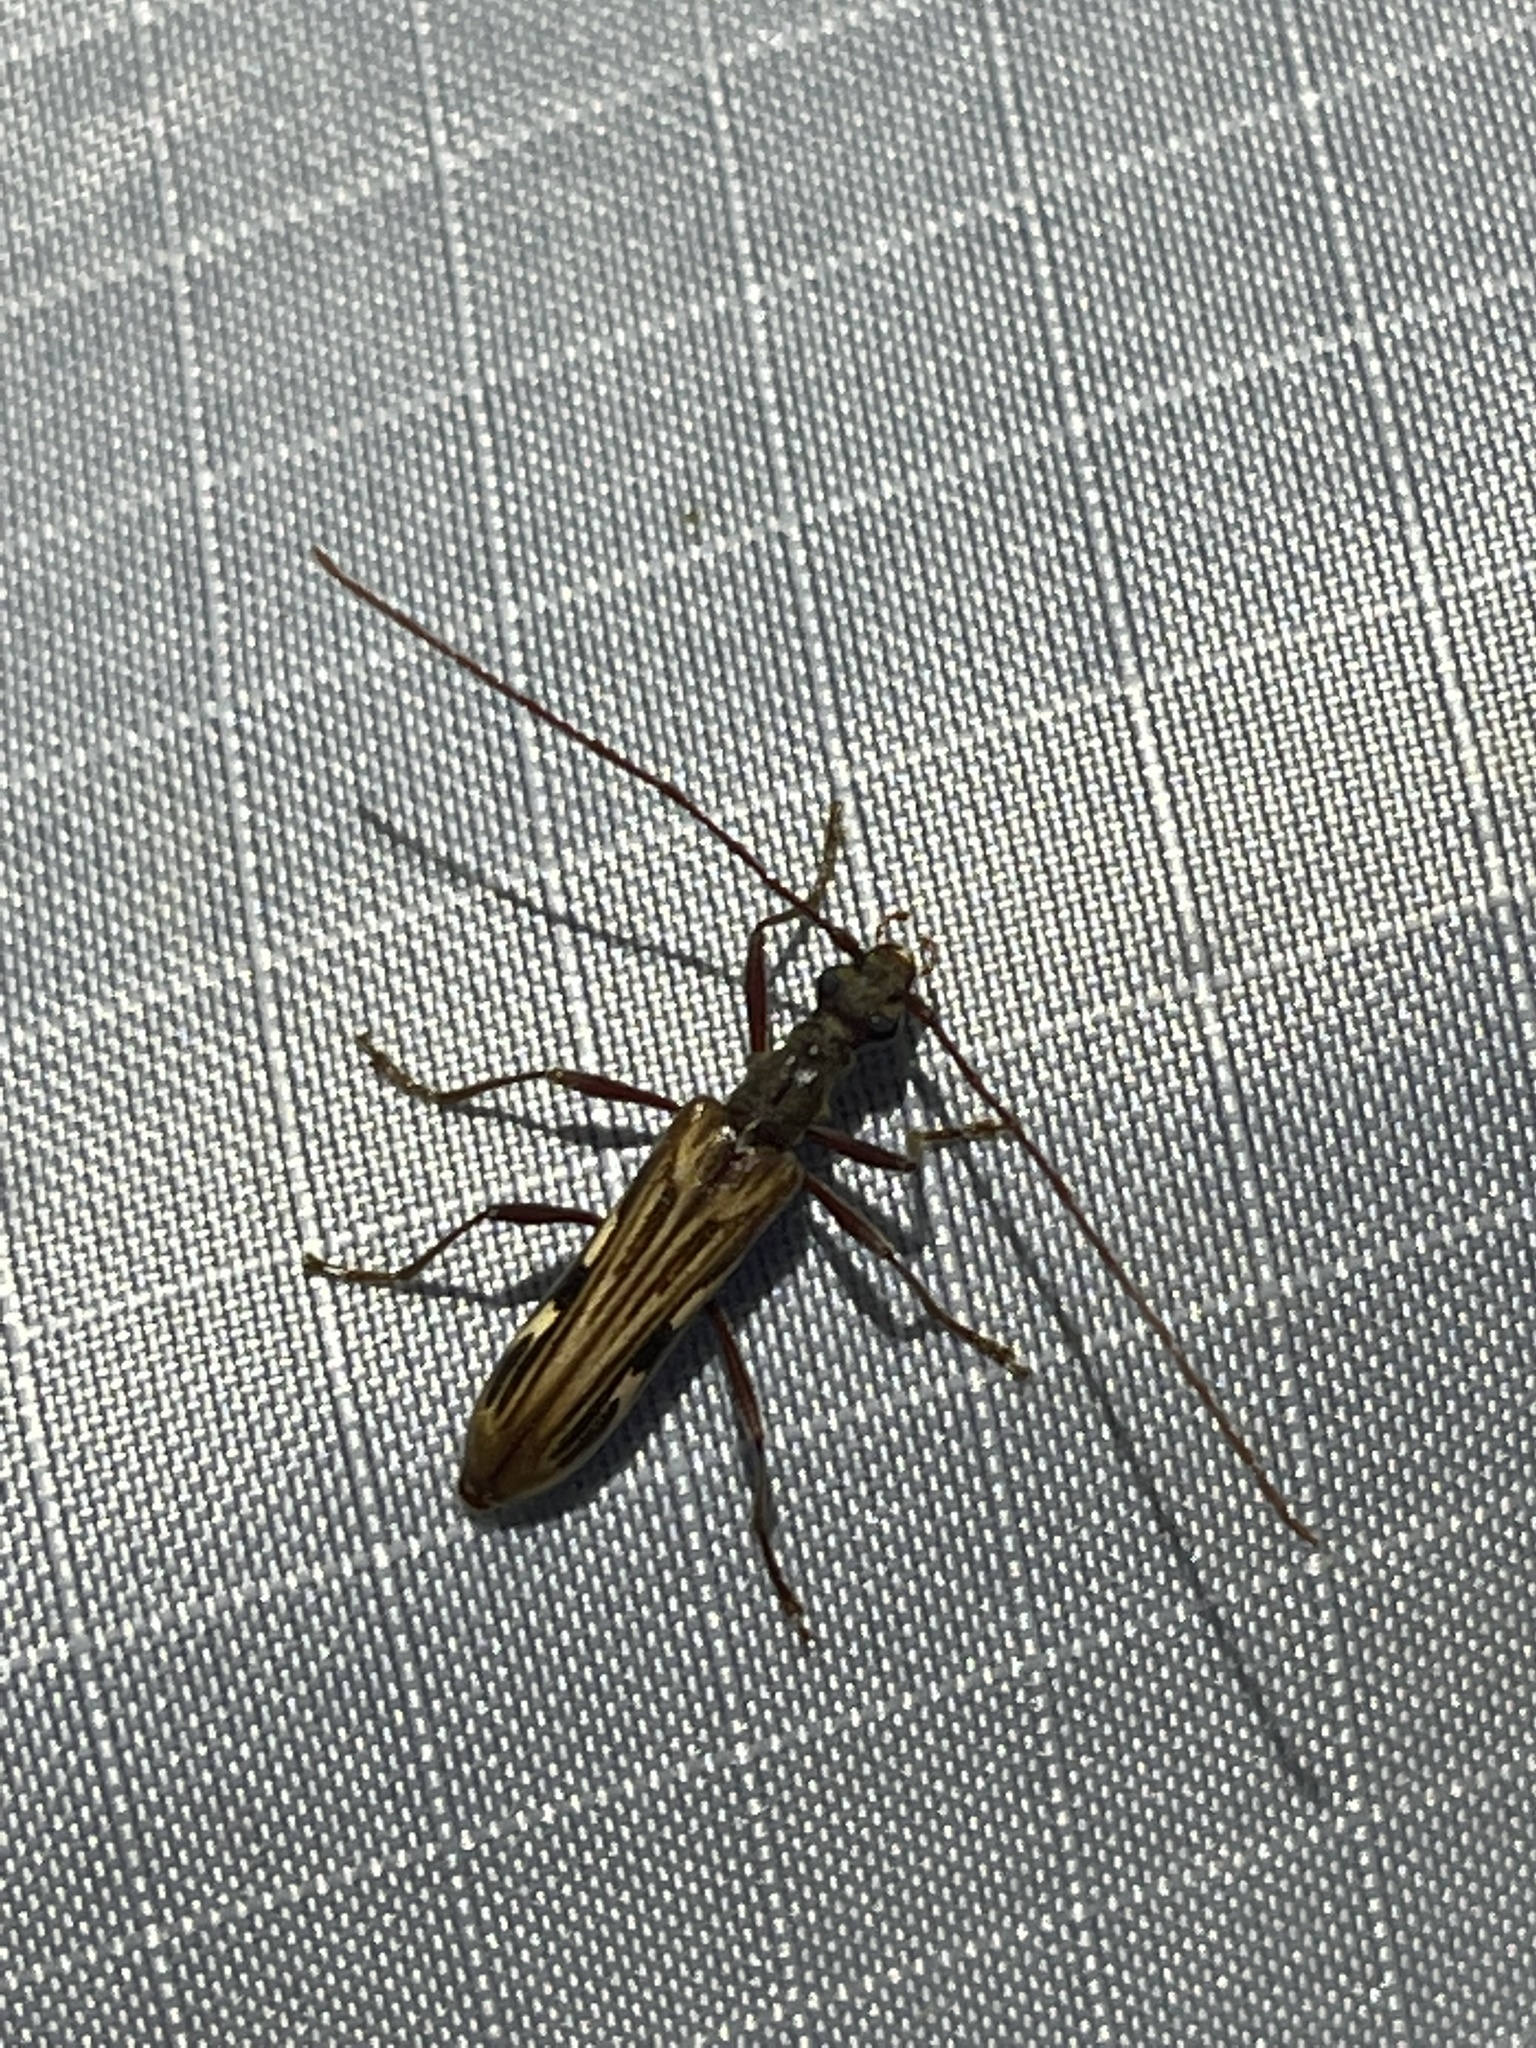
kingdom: Animalia
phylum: Arthropoda
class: Insecta
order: Coleoptera
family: Cerambycidae
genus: Leptorhabdium
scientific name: Leptorhabdium pictum
